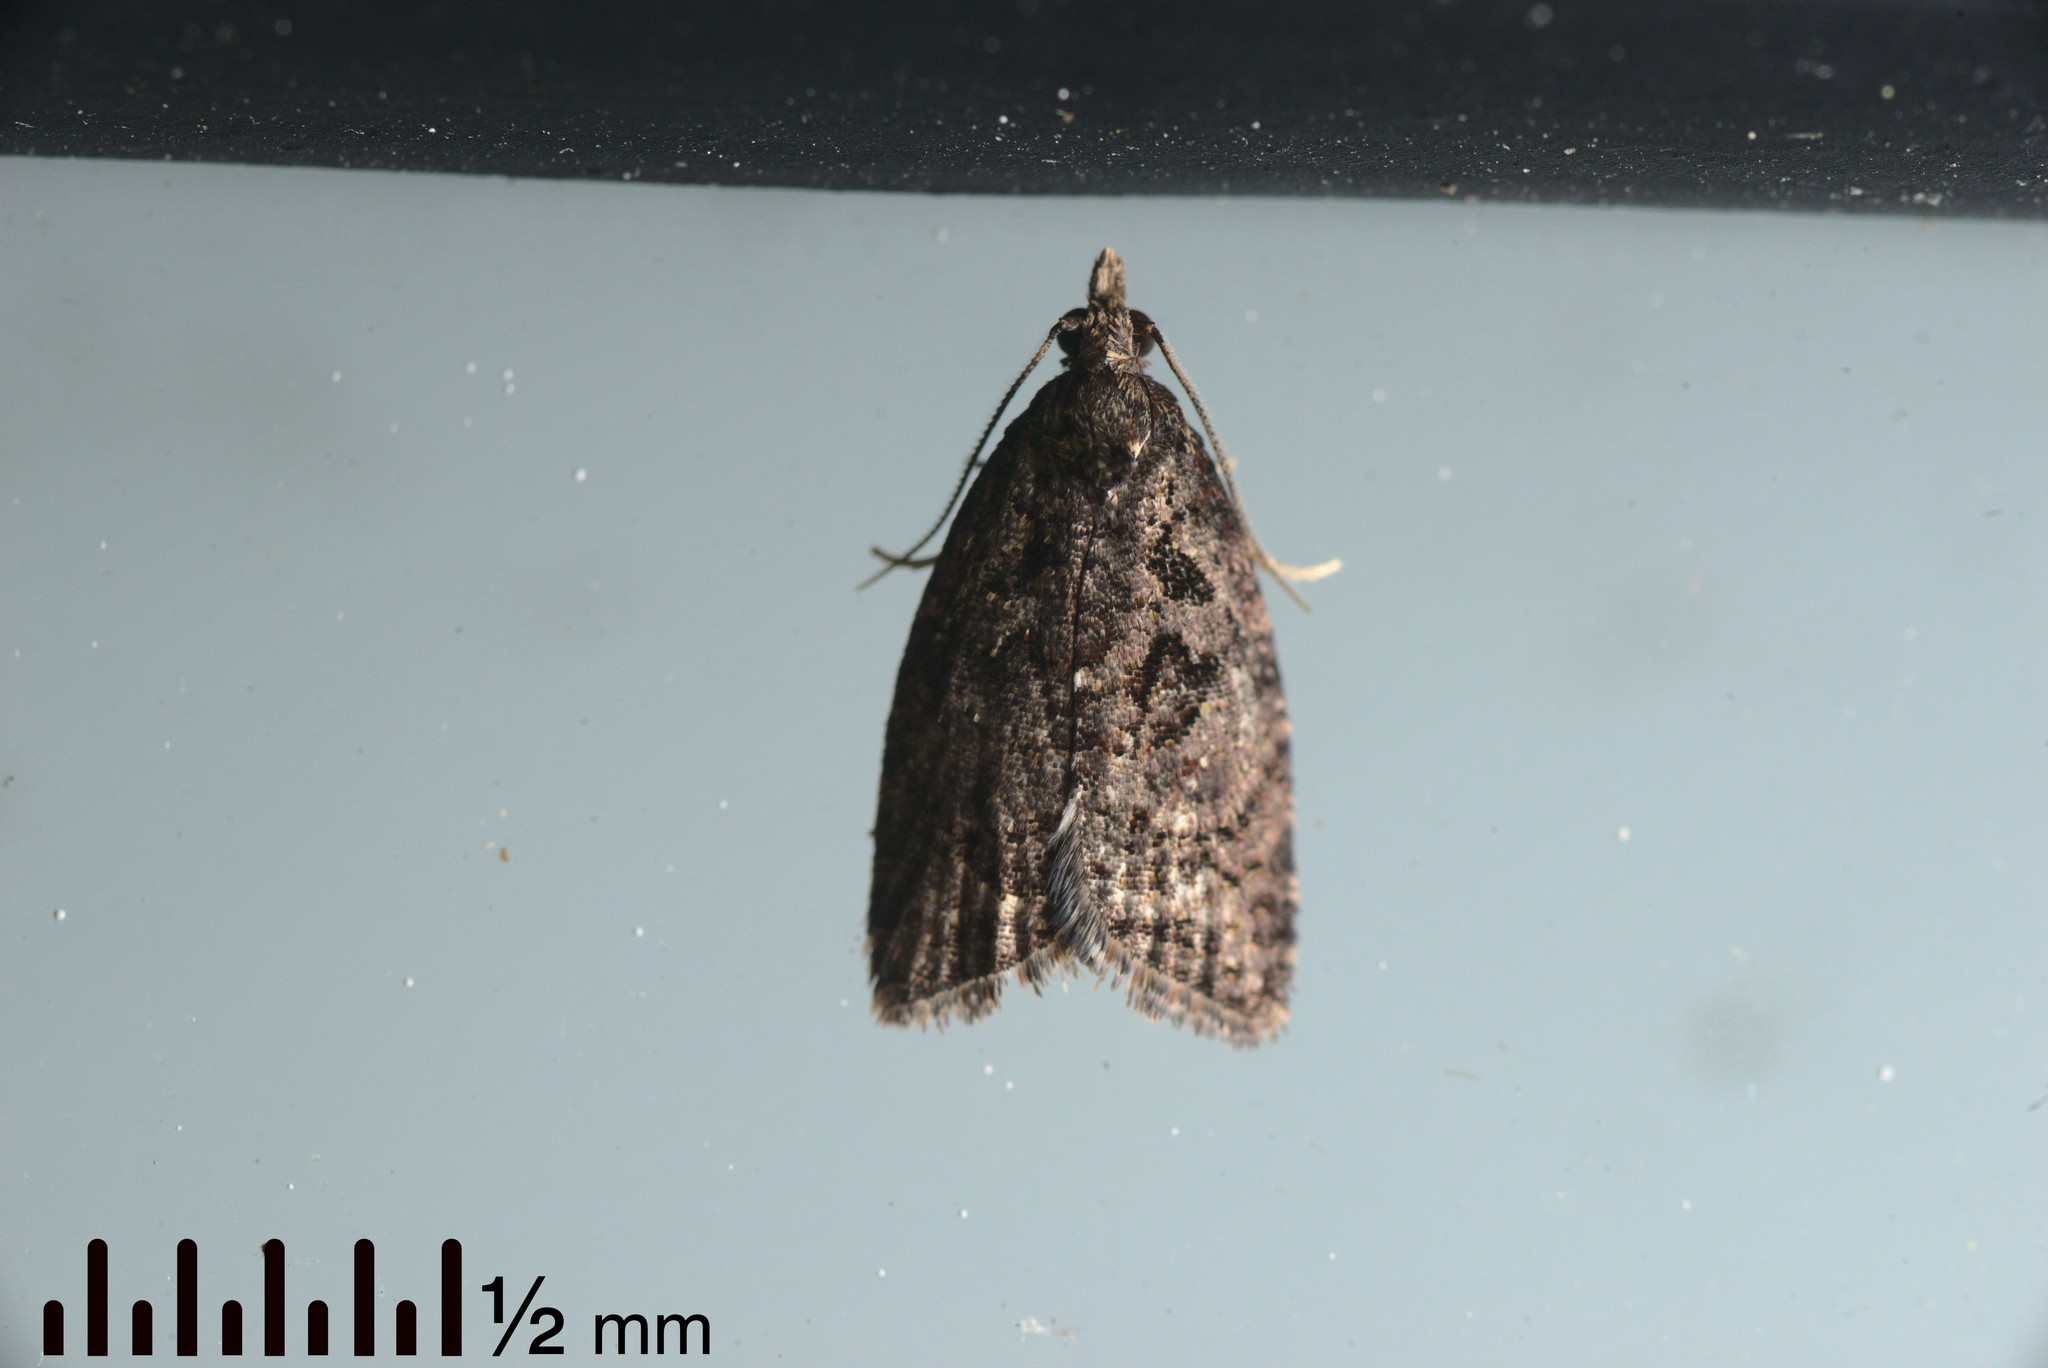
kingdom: Animalia
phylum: Arthropoda
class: Insecta
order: Lepidoptera
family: Tortricidae
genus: Capua
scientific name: Capua intractana
